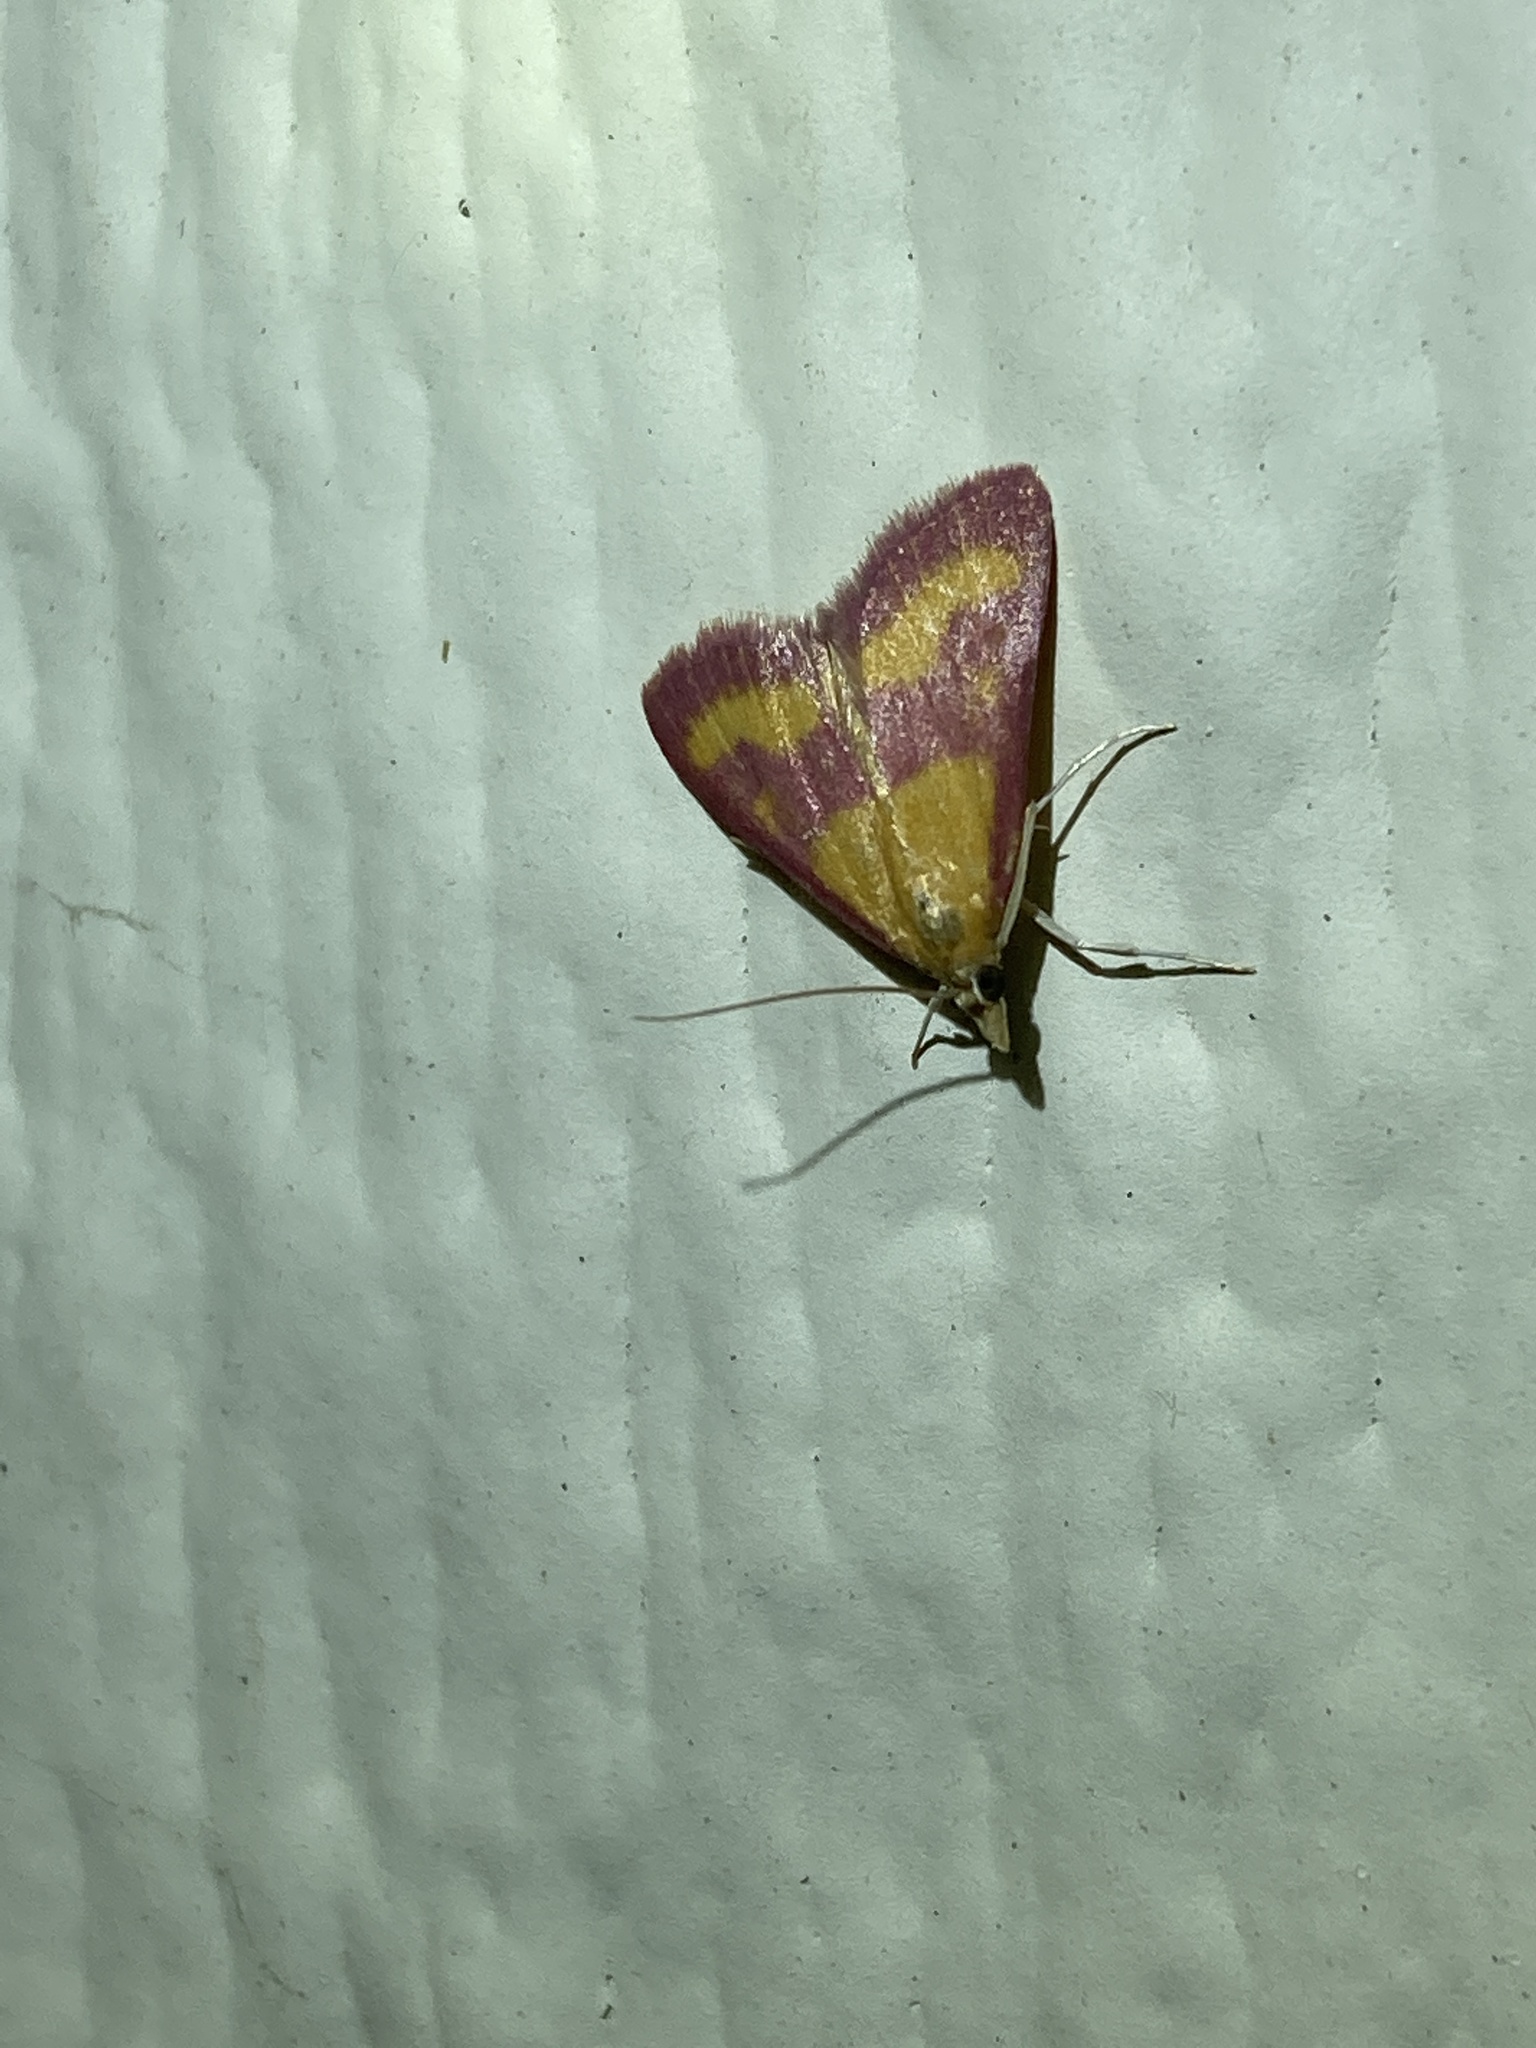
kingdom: Animalia
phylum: Arthropoda
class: Insecta
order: Lepidoptera
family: Crambidae
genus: Pyrausta
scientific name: Pyrausta laticlavia
